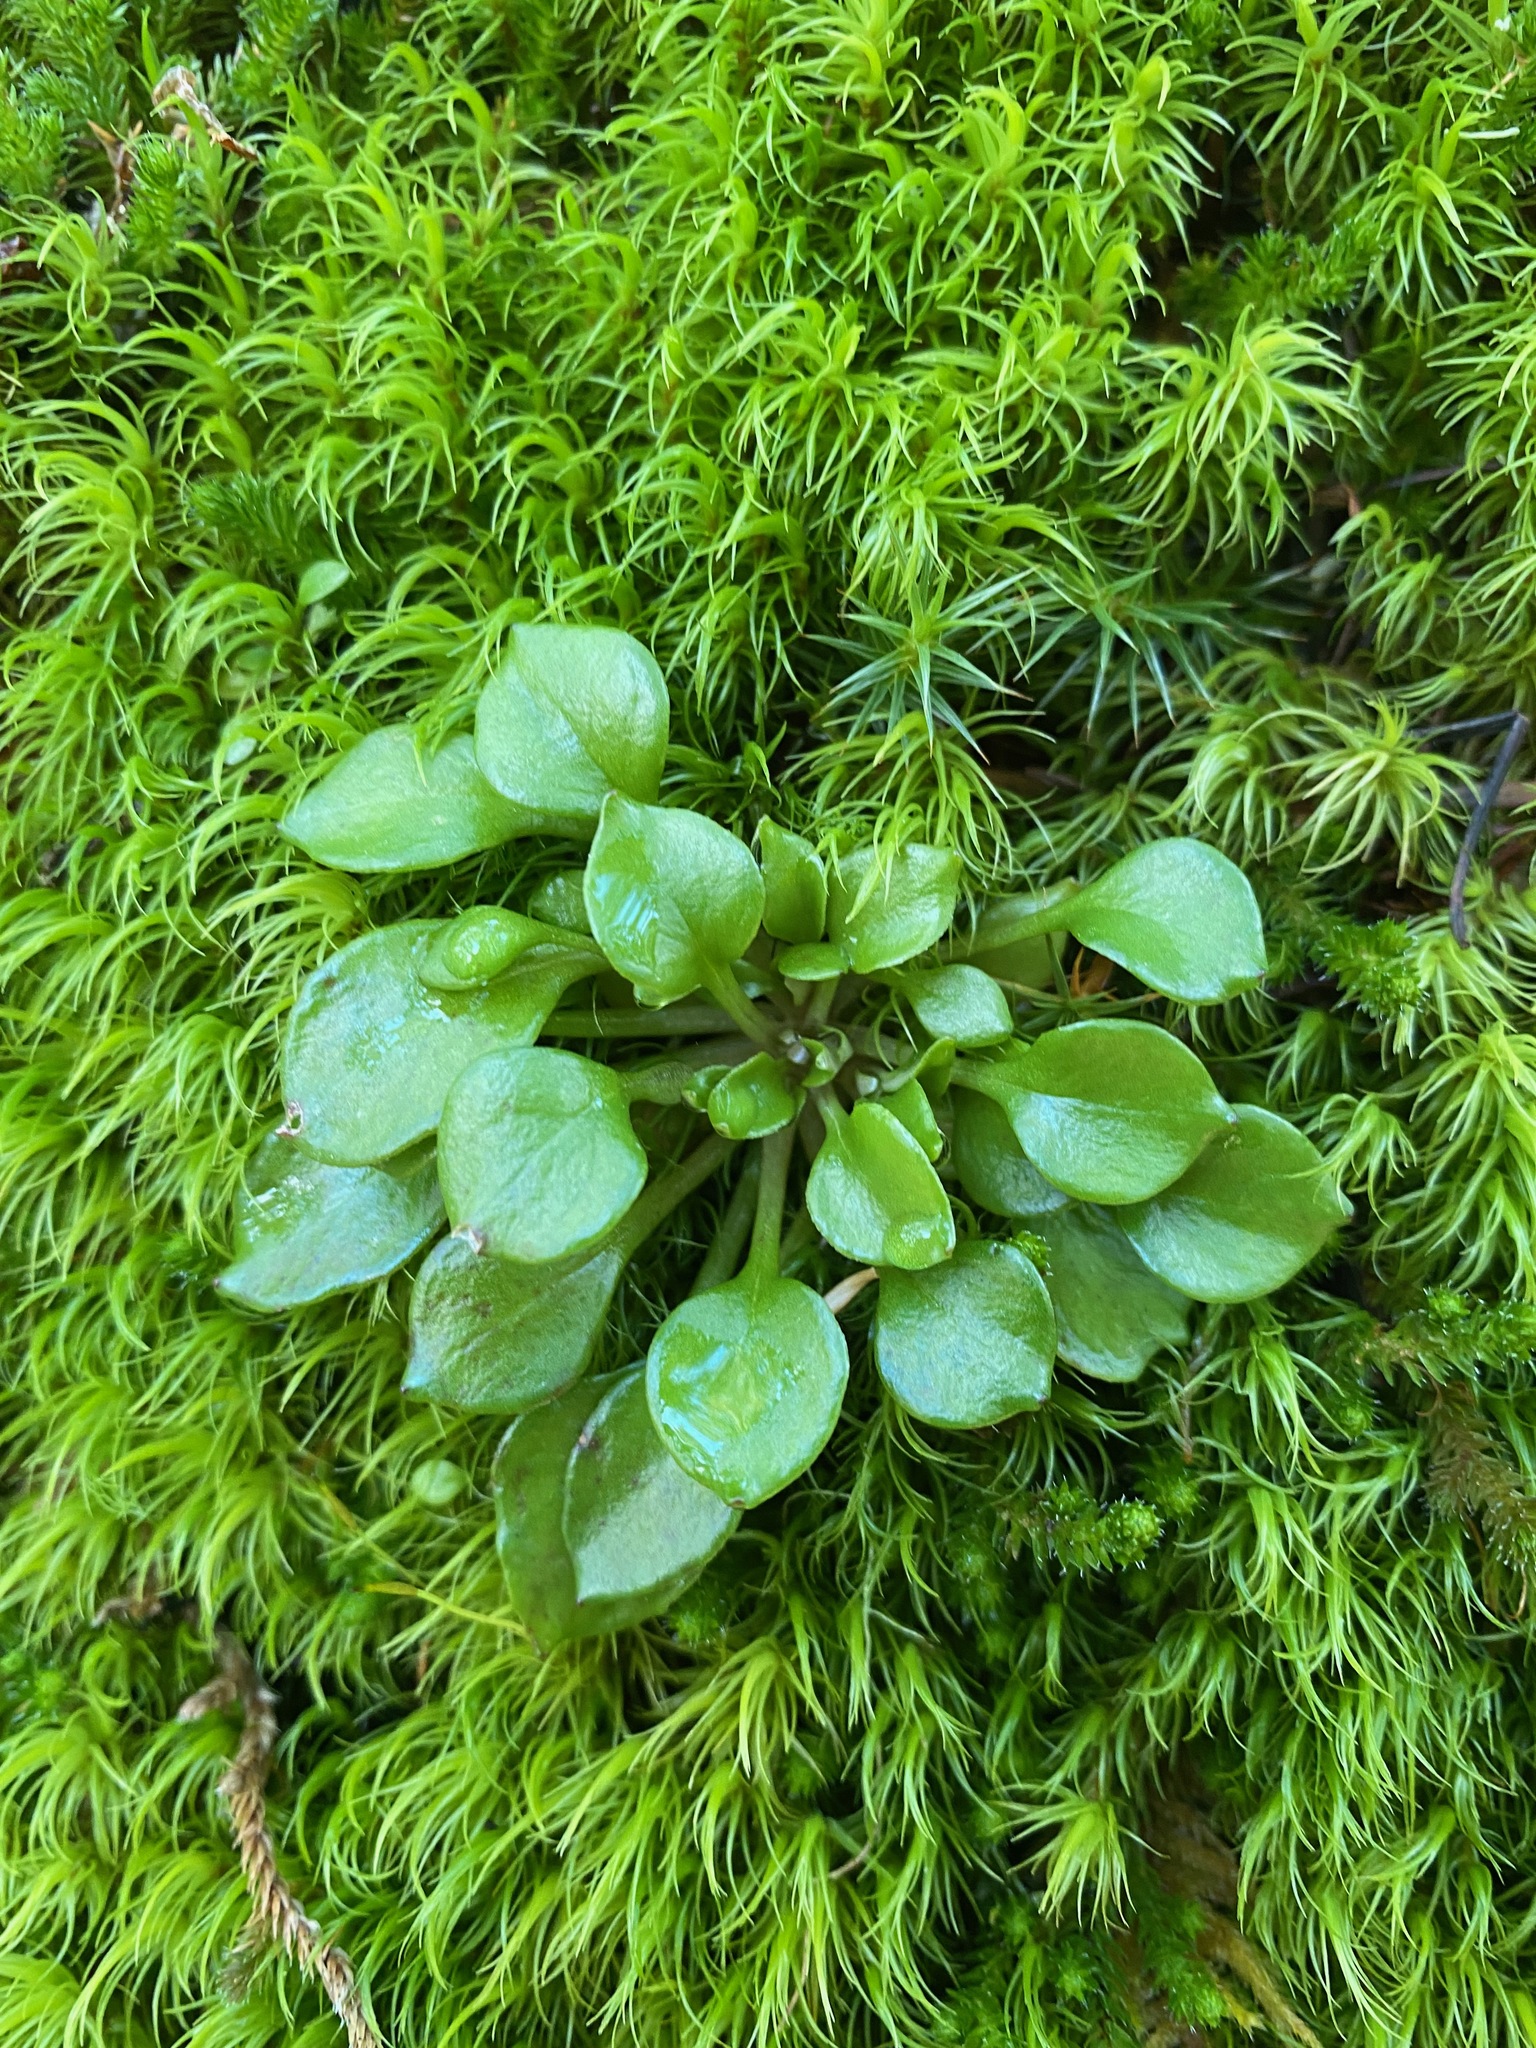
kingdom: Plantae
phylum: Tracheophyta
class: Magnoliopsida
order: Caryophyllales
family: Montiaceae
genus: Montia
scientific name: Montia parvifolia
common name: Small-leaved blinks
